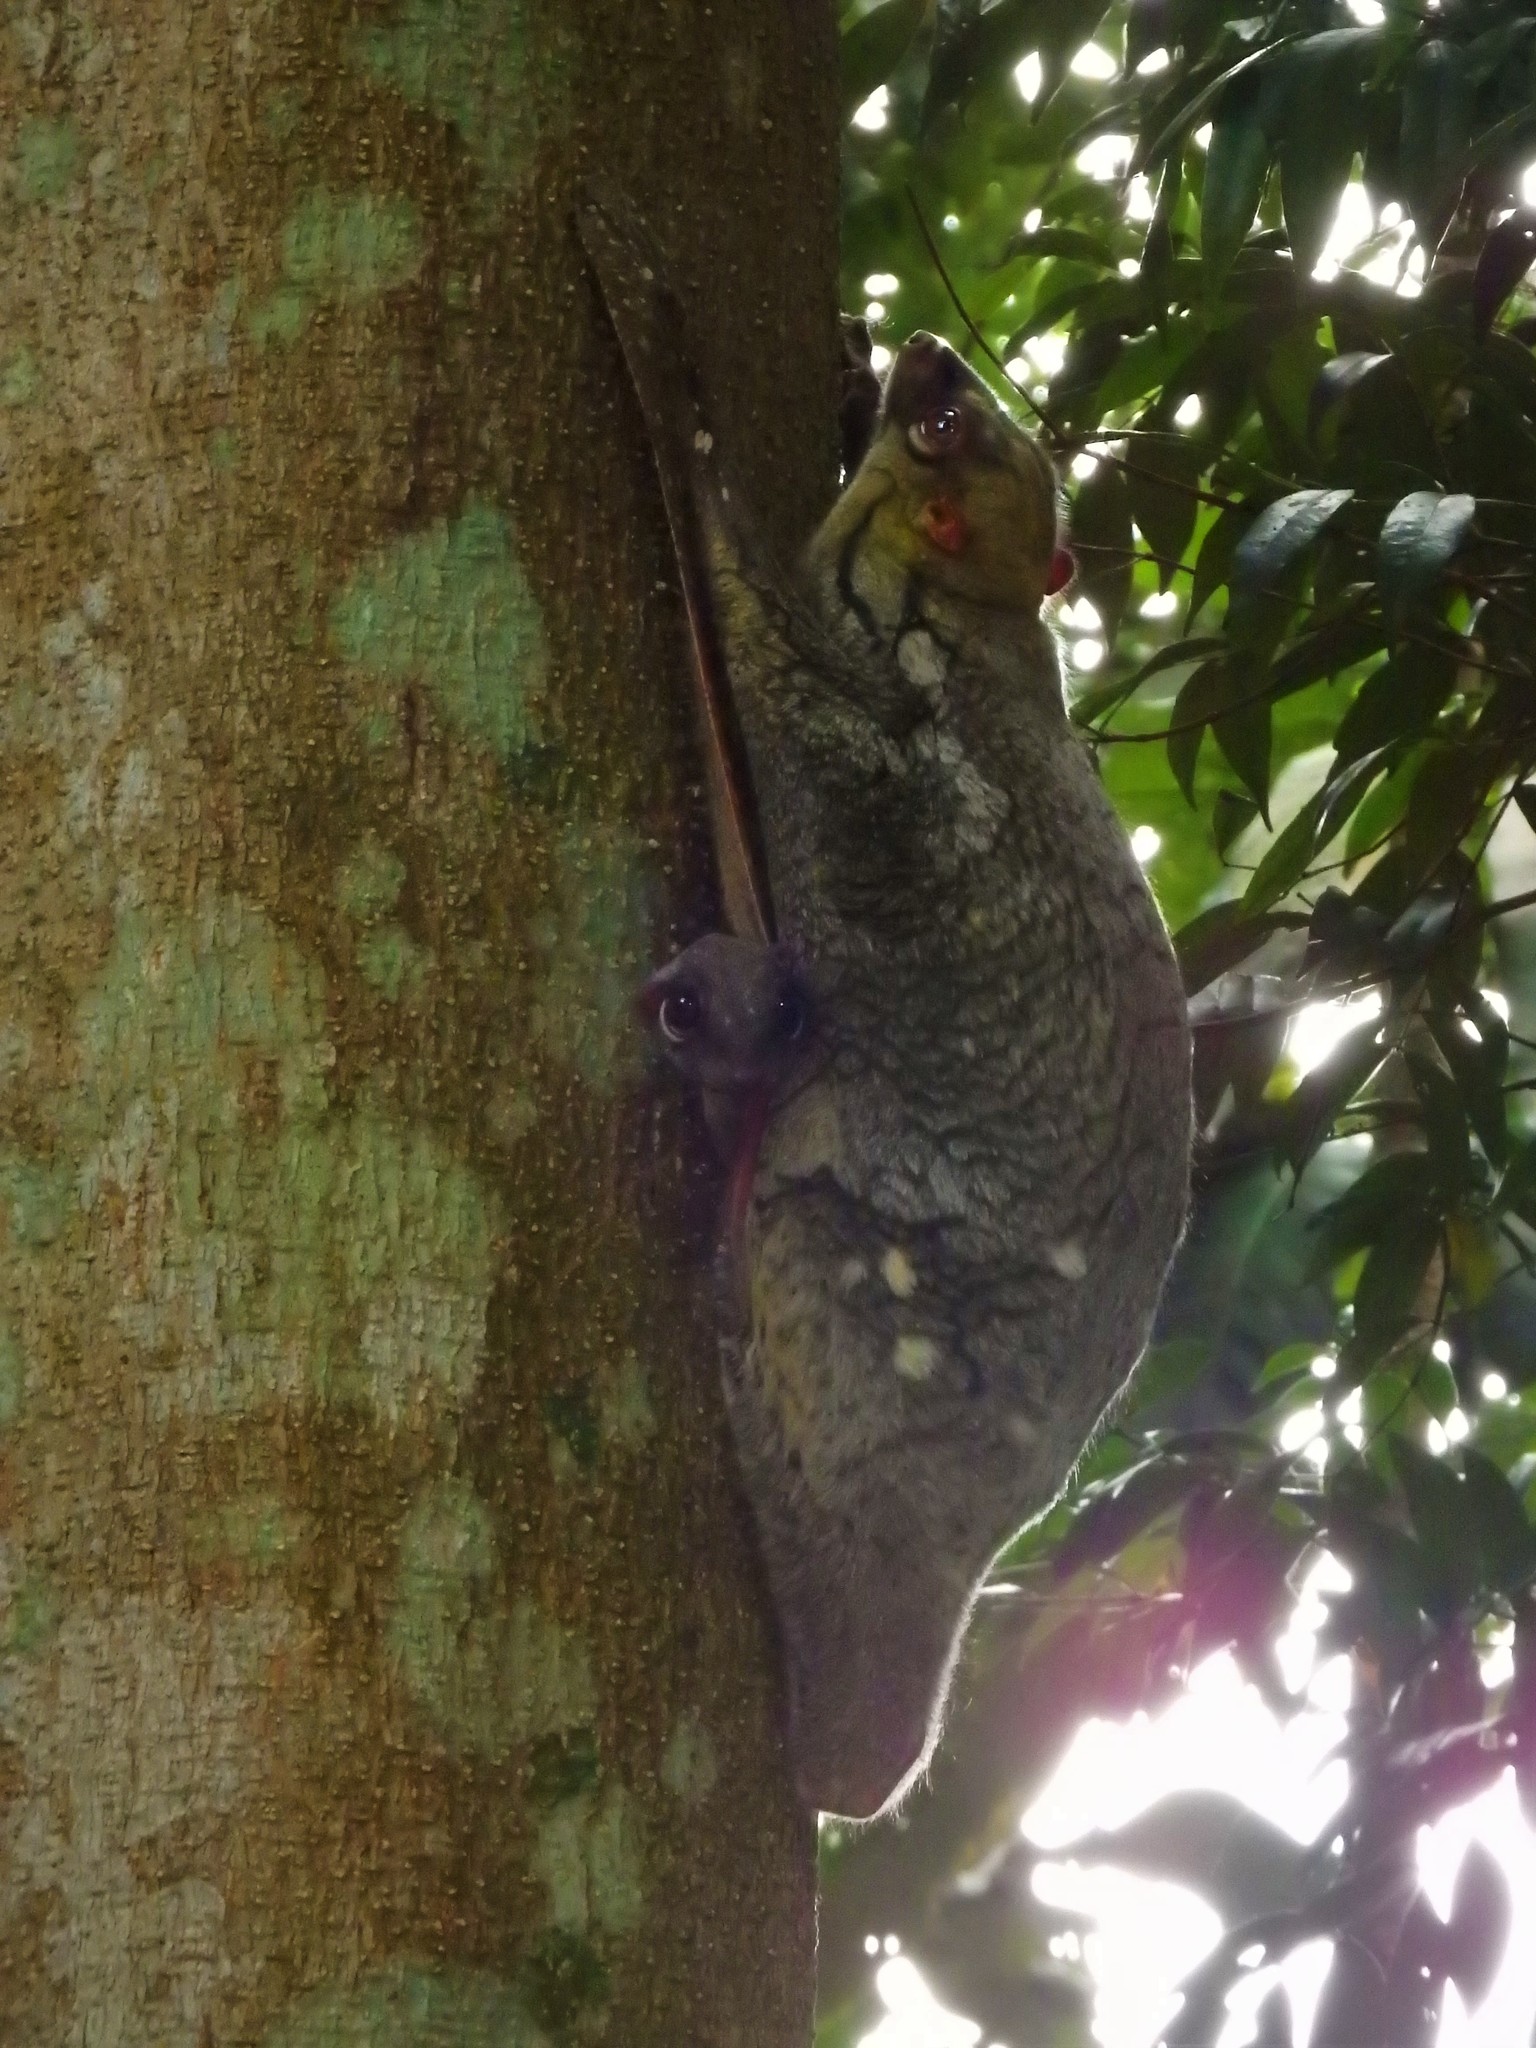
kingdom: Animalia
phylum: Chordata
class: Mammalia
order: Dermoptera
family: Cynocephalidae
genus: Galeopterus
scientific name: Galeopterus variegatus
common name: Sunda flying lemur
